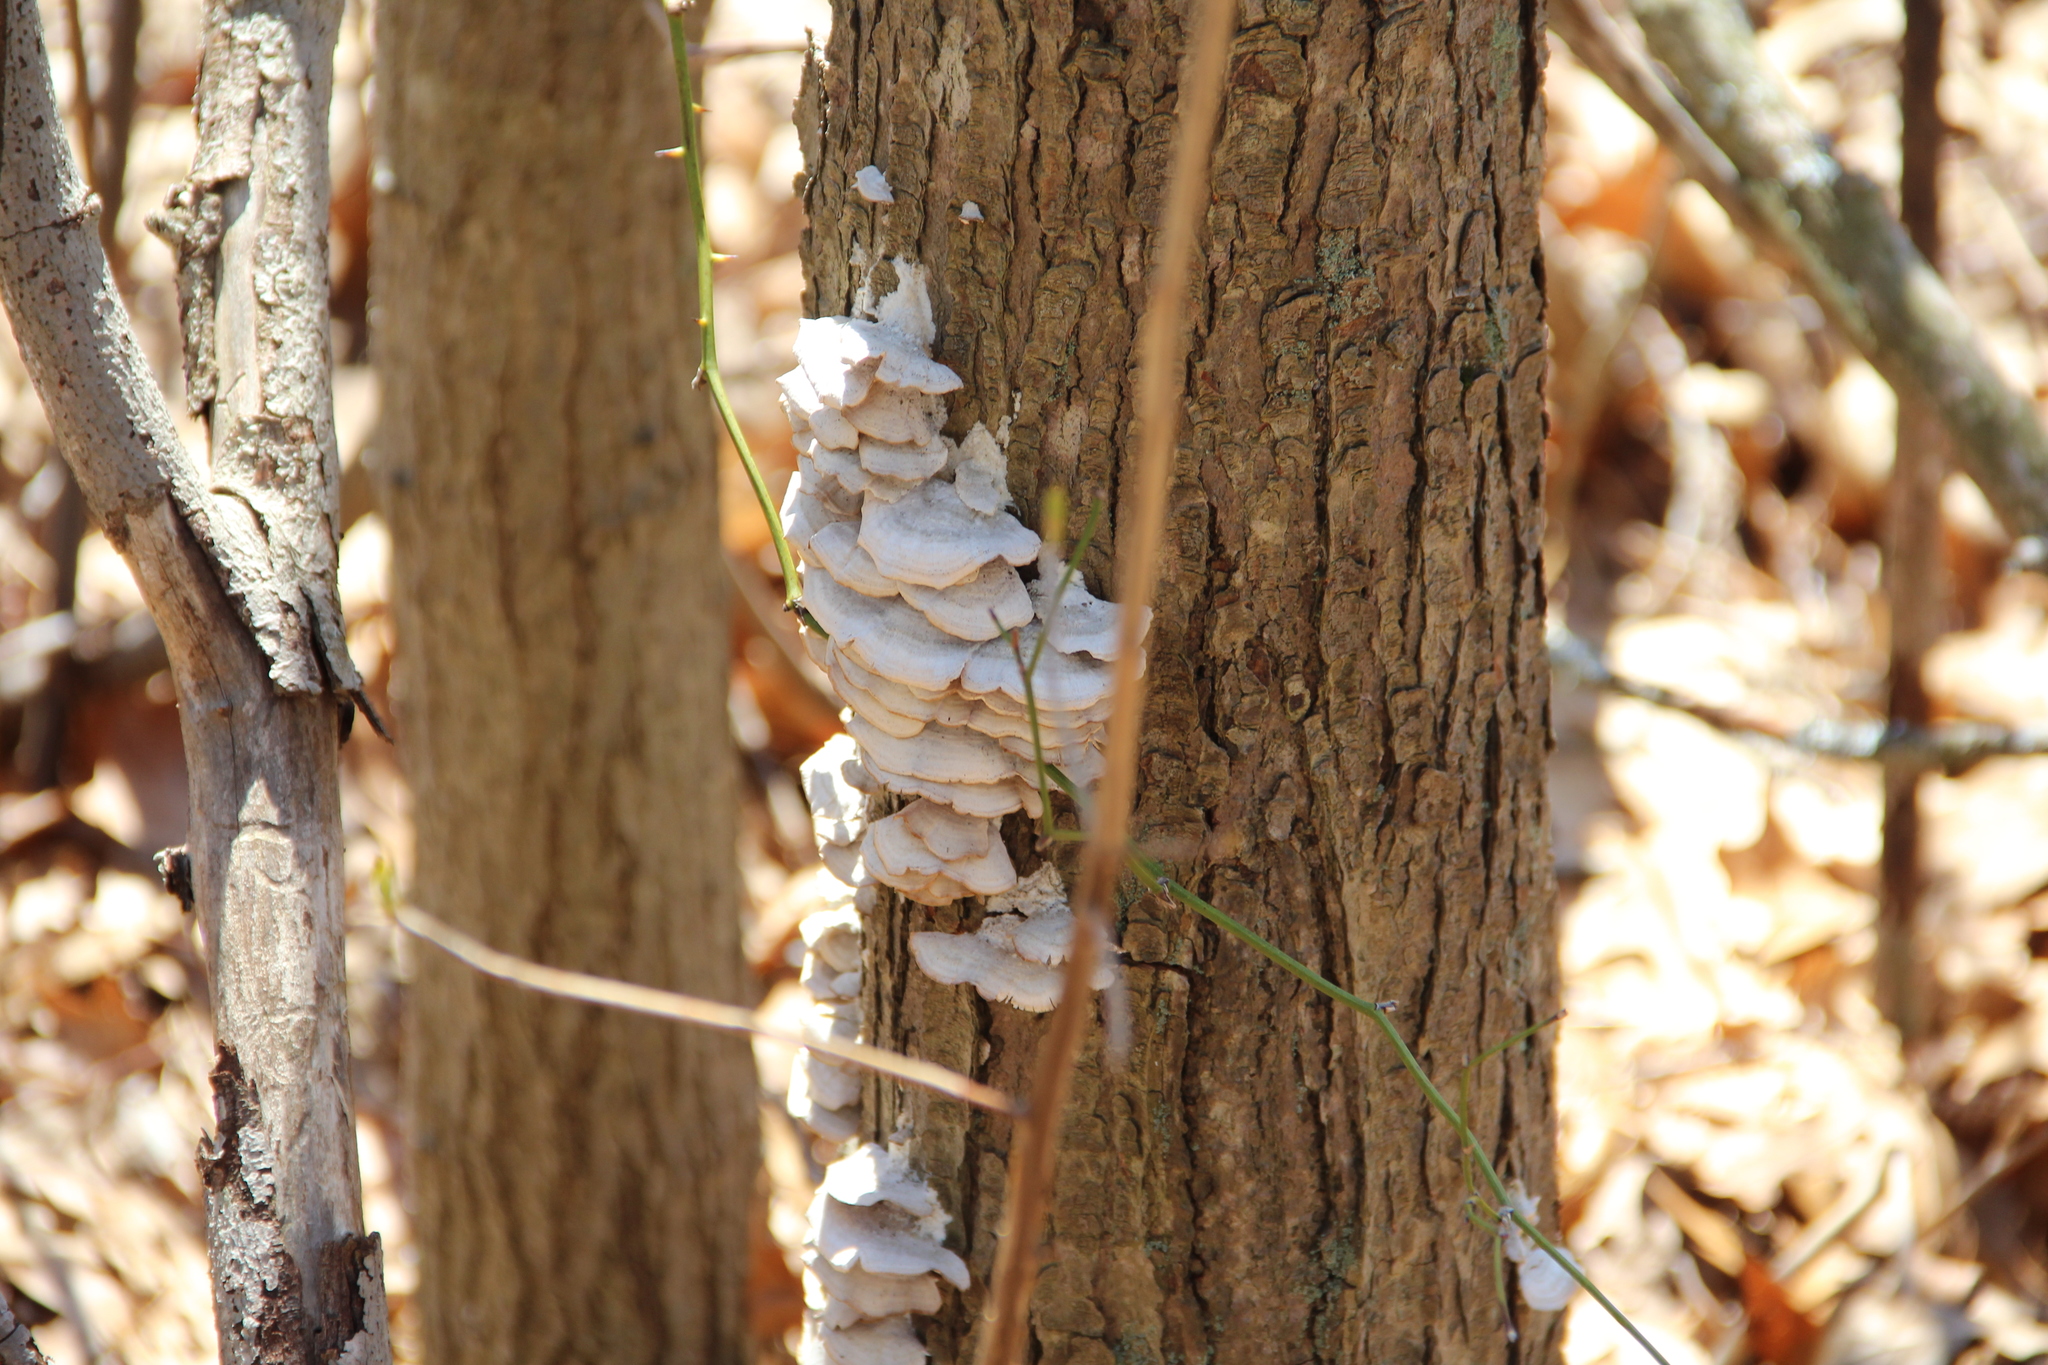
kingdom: Fungi
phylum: Basidiomycota
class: Agaricomycetes
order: Polyporales
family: Polyporaceae
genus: Trametes
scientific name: Trametes versicolor
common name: Turkeytail
